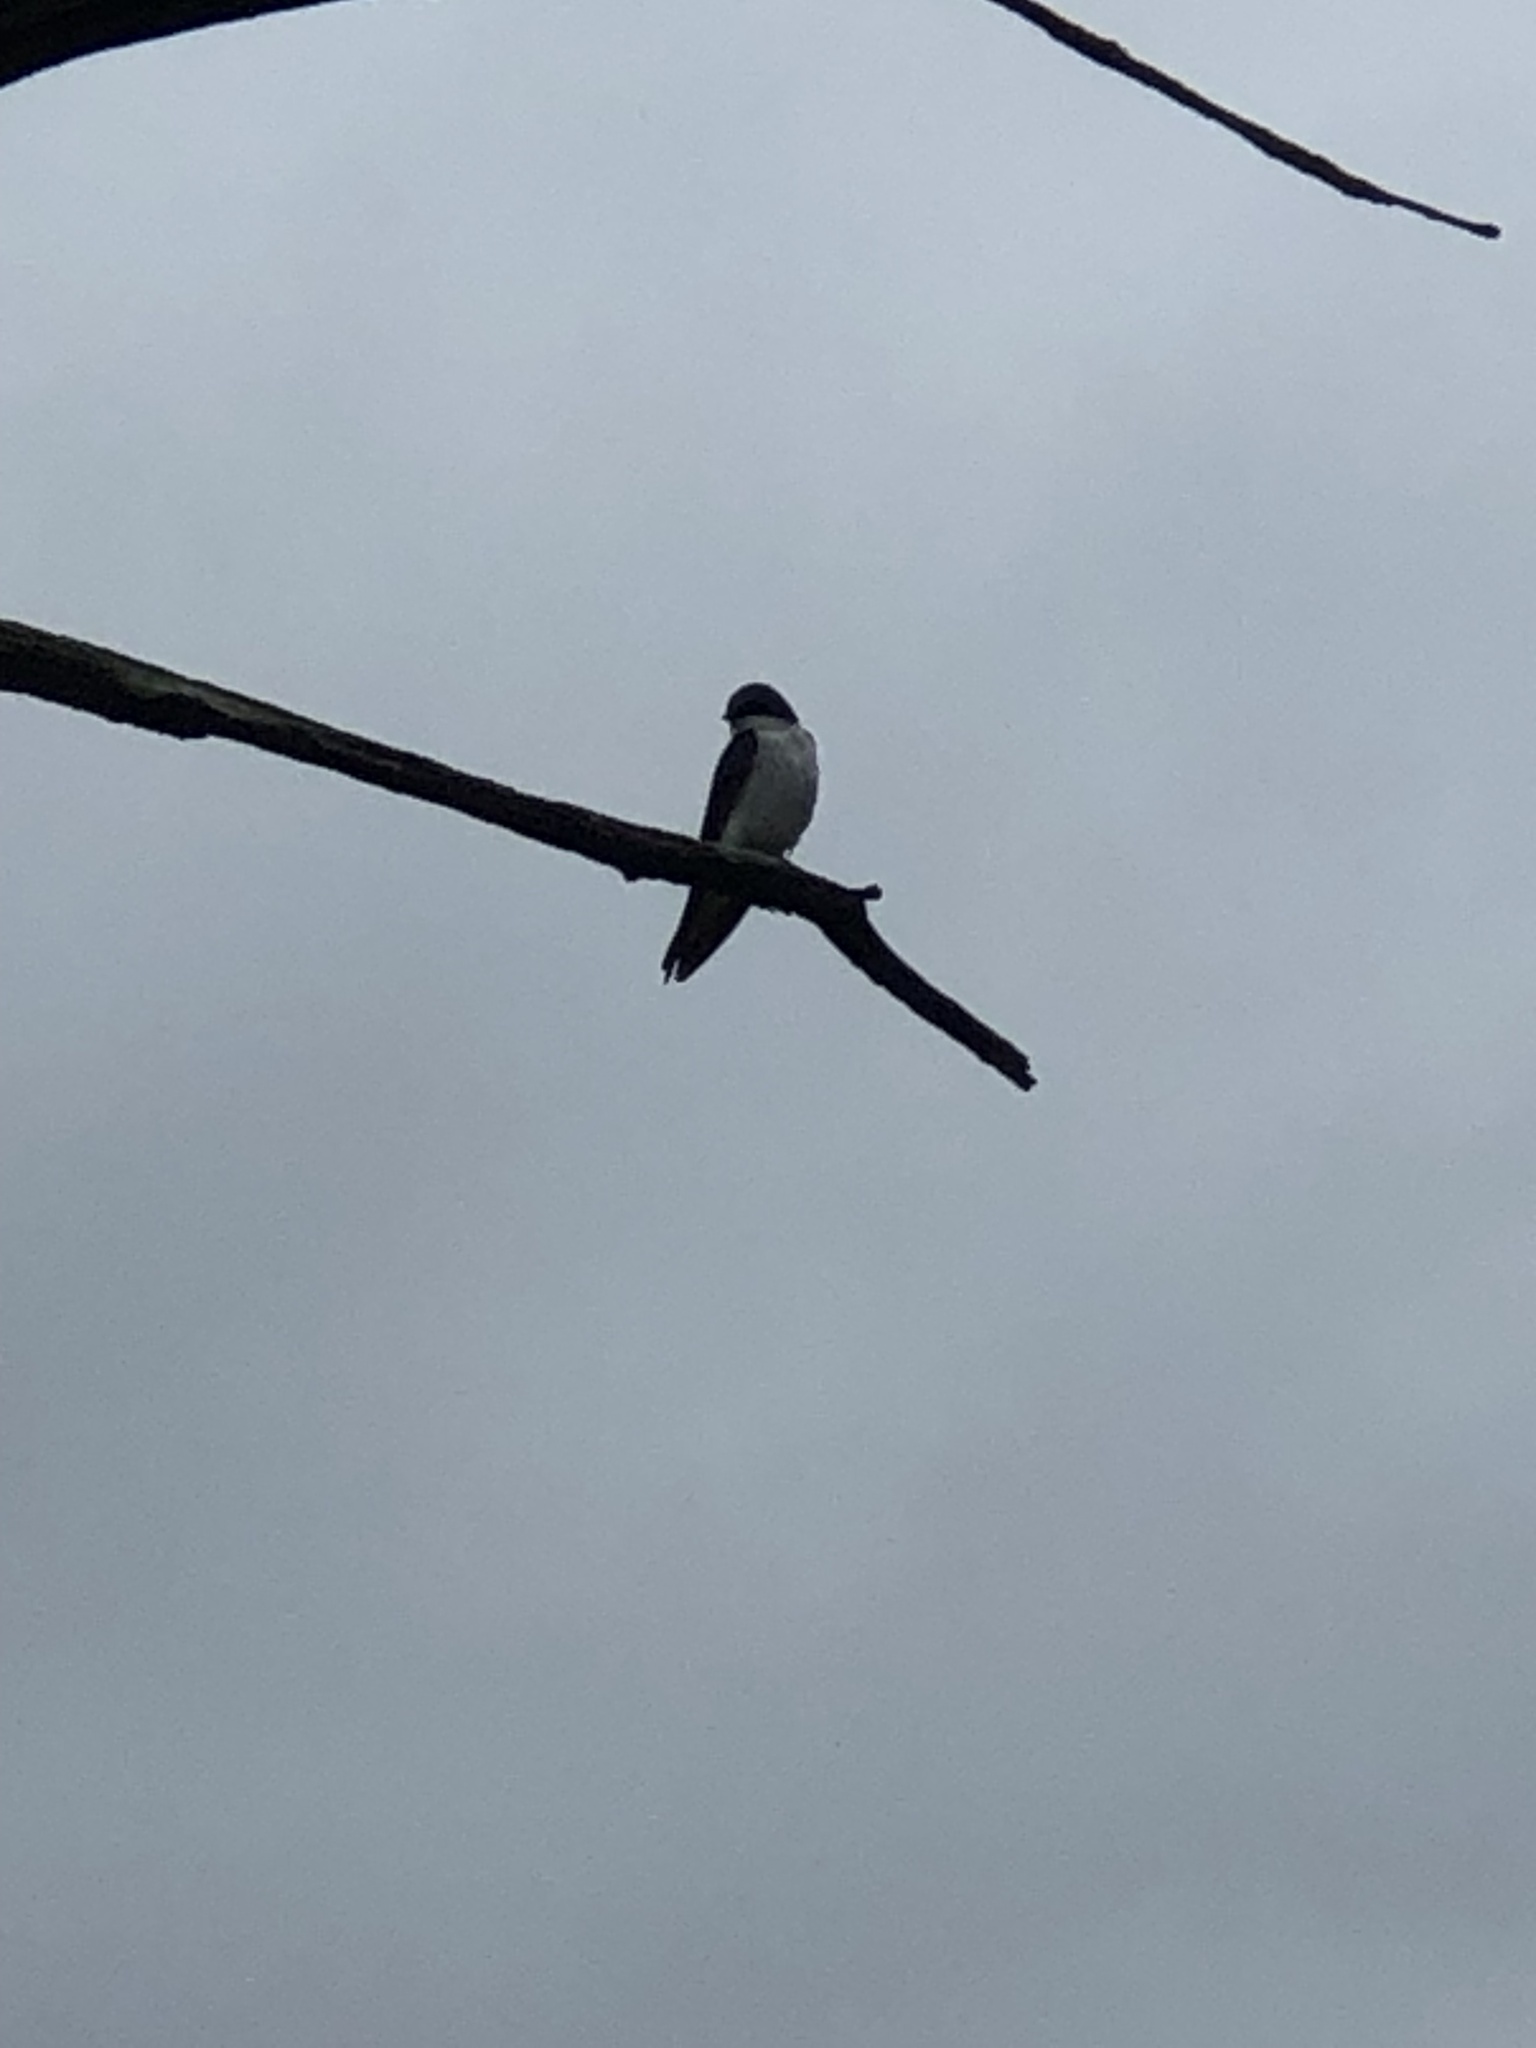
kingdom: Animalia
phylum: Chordata
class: Aves
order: Passeriformes
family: Hirundinidae
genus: Tachycineta
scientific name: Tachycineta bicolor
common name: Tree swallow
